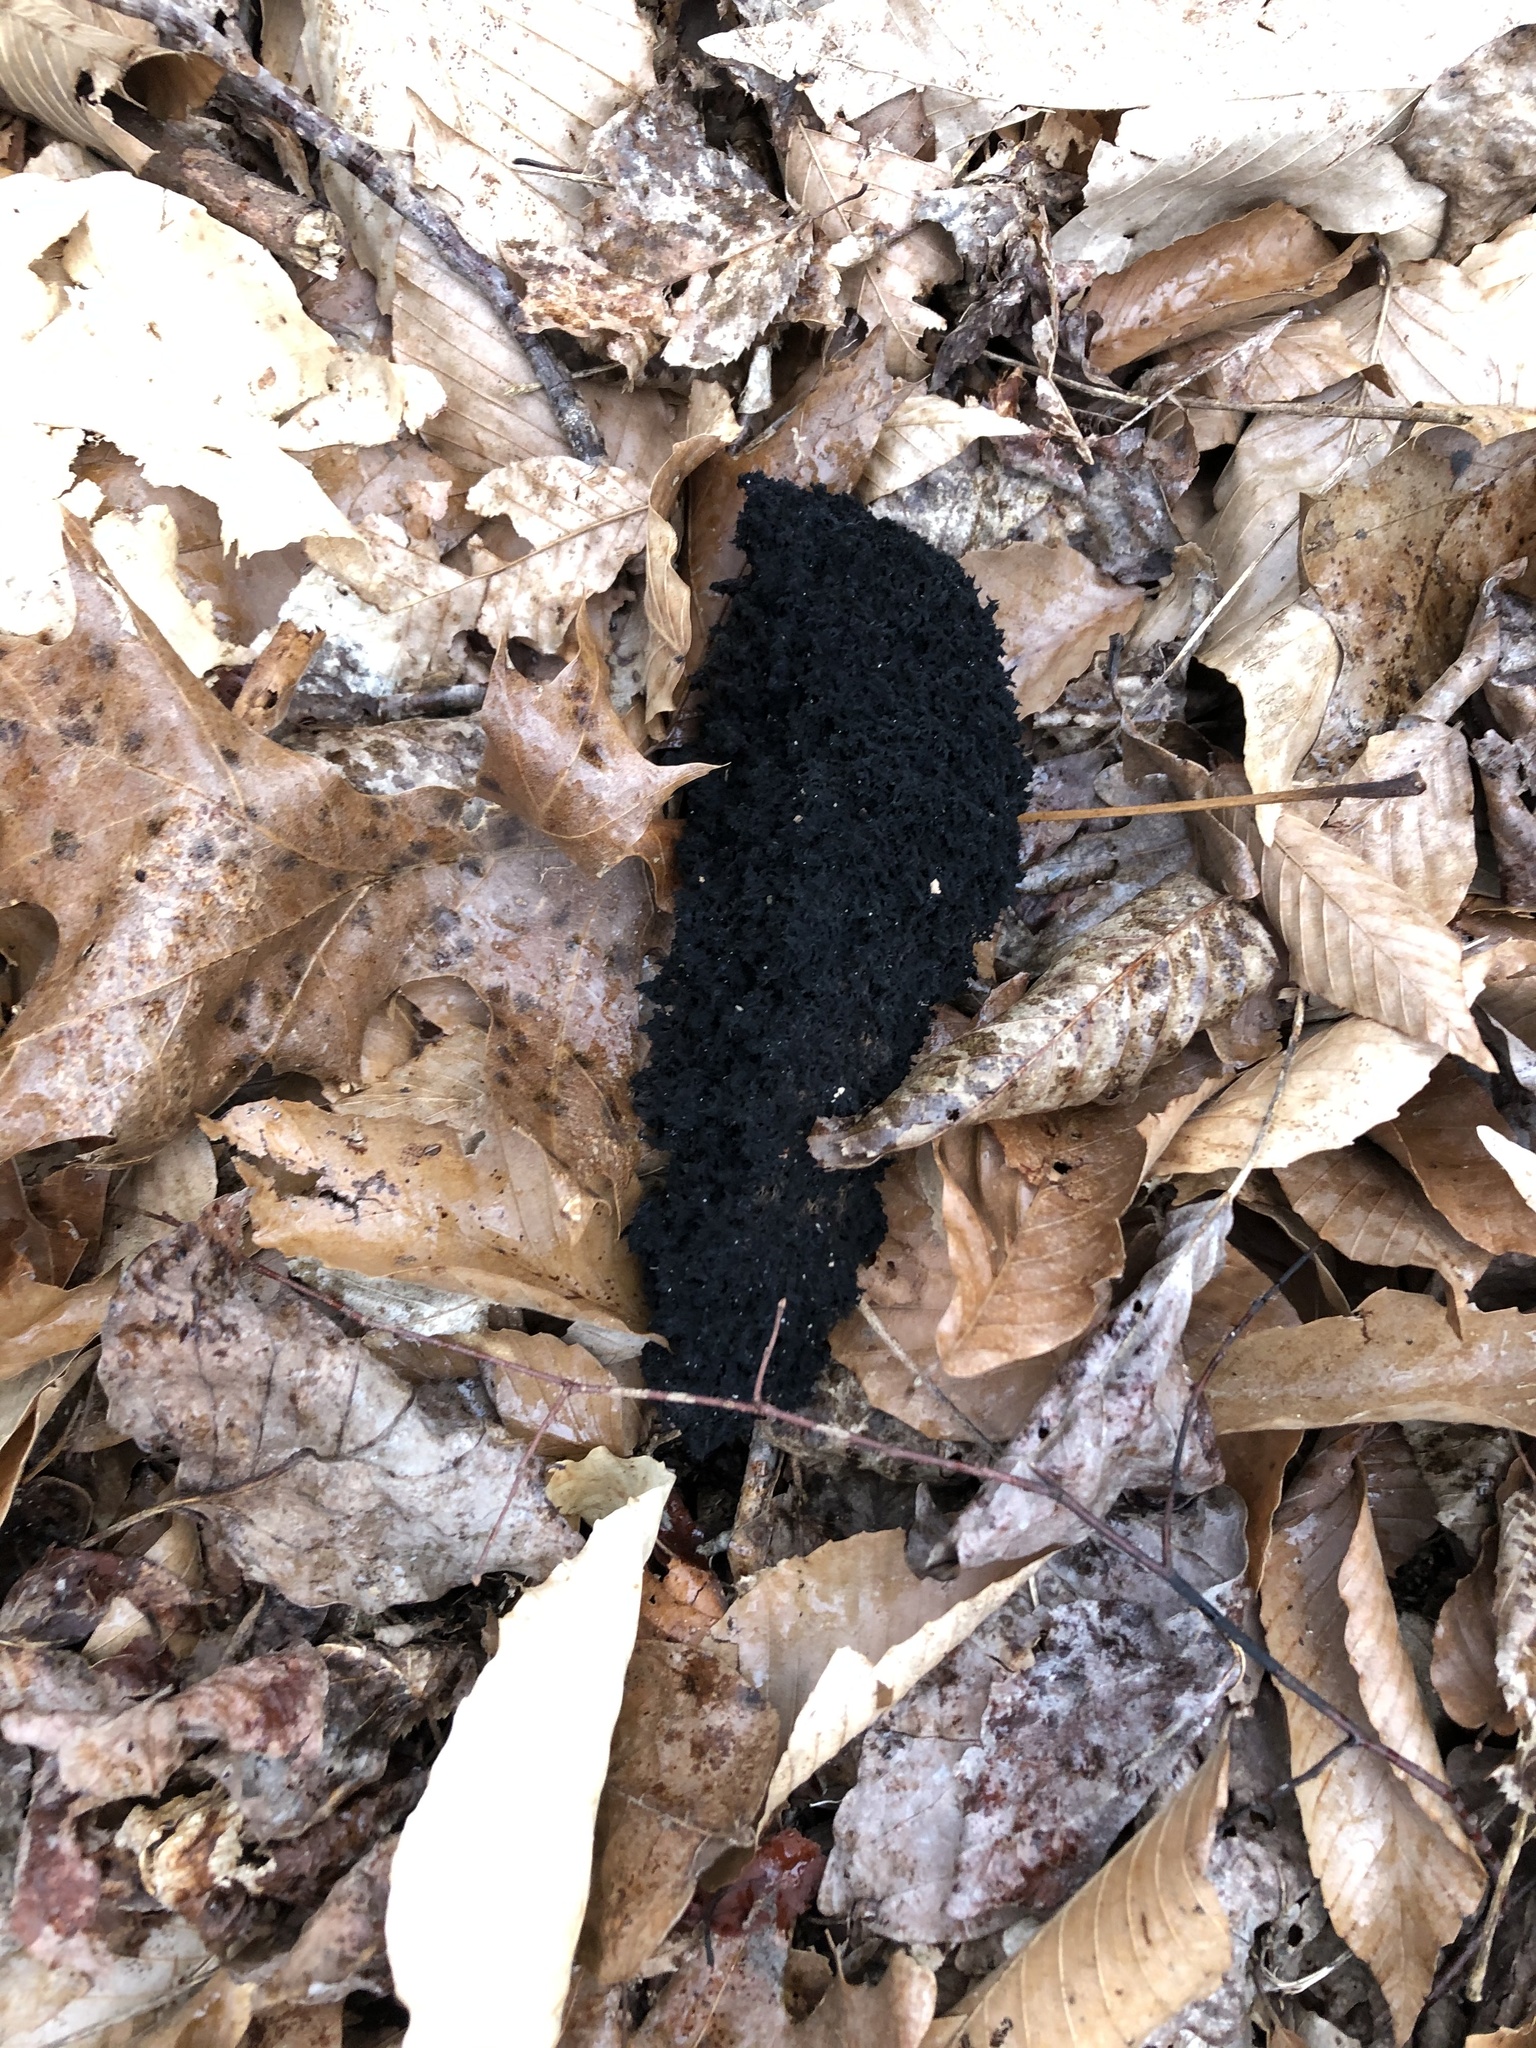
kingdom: Fungi
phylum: Ascomycota
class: Dothideomycetes
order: Capnodiales
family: Capnodiaceae
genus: Scorias
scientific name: Scorias spongiosa
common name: Black sooty mold
